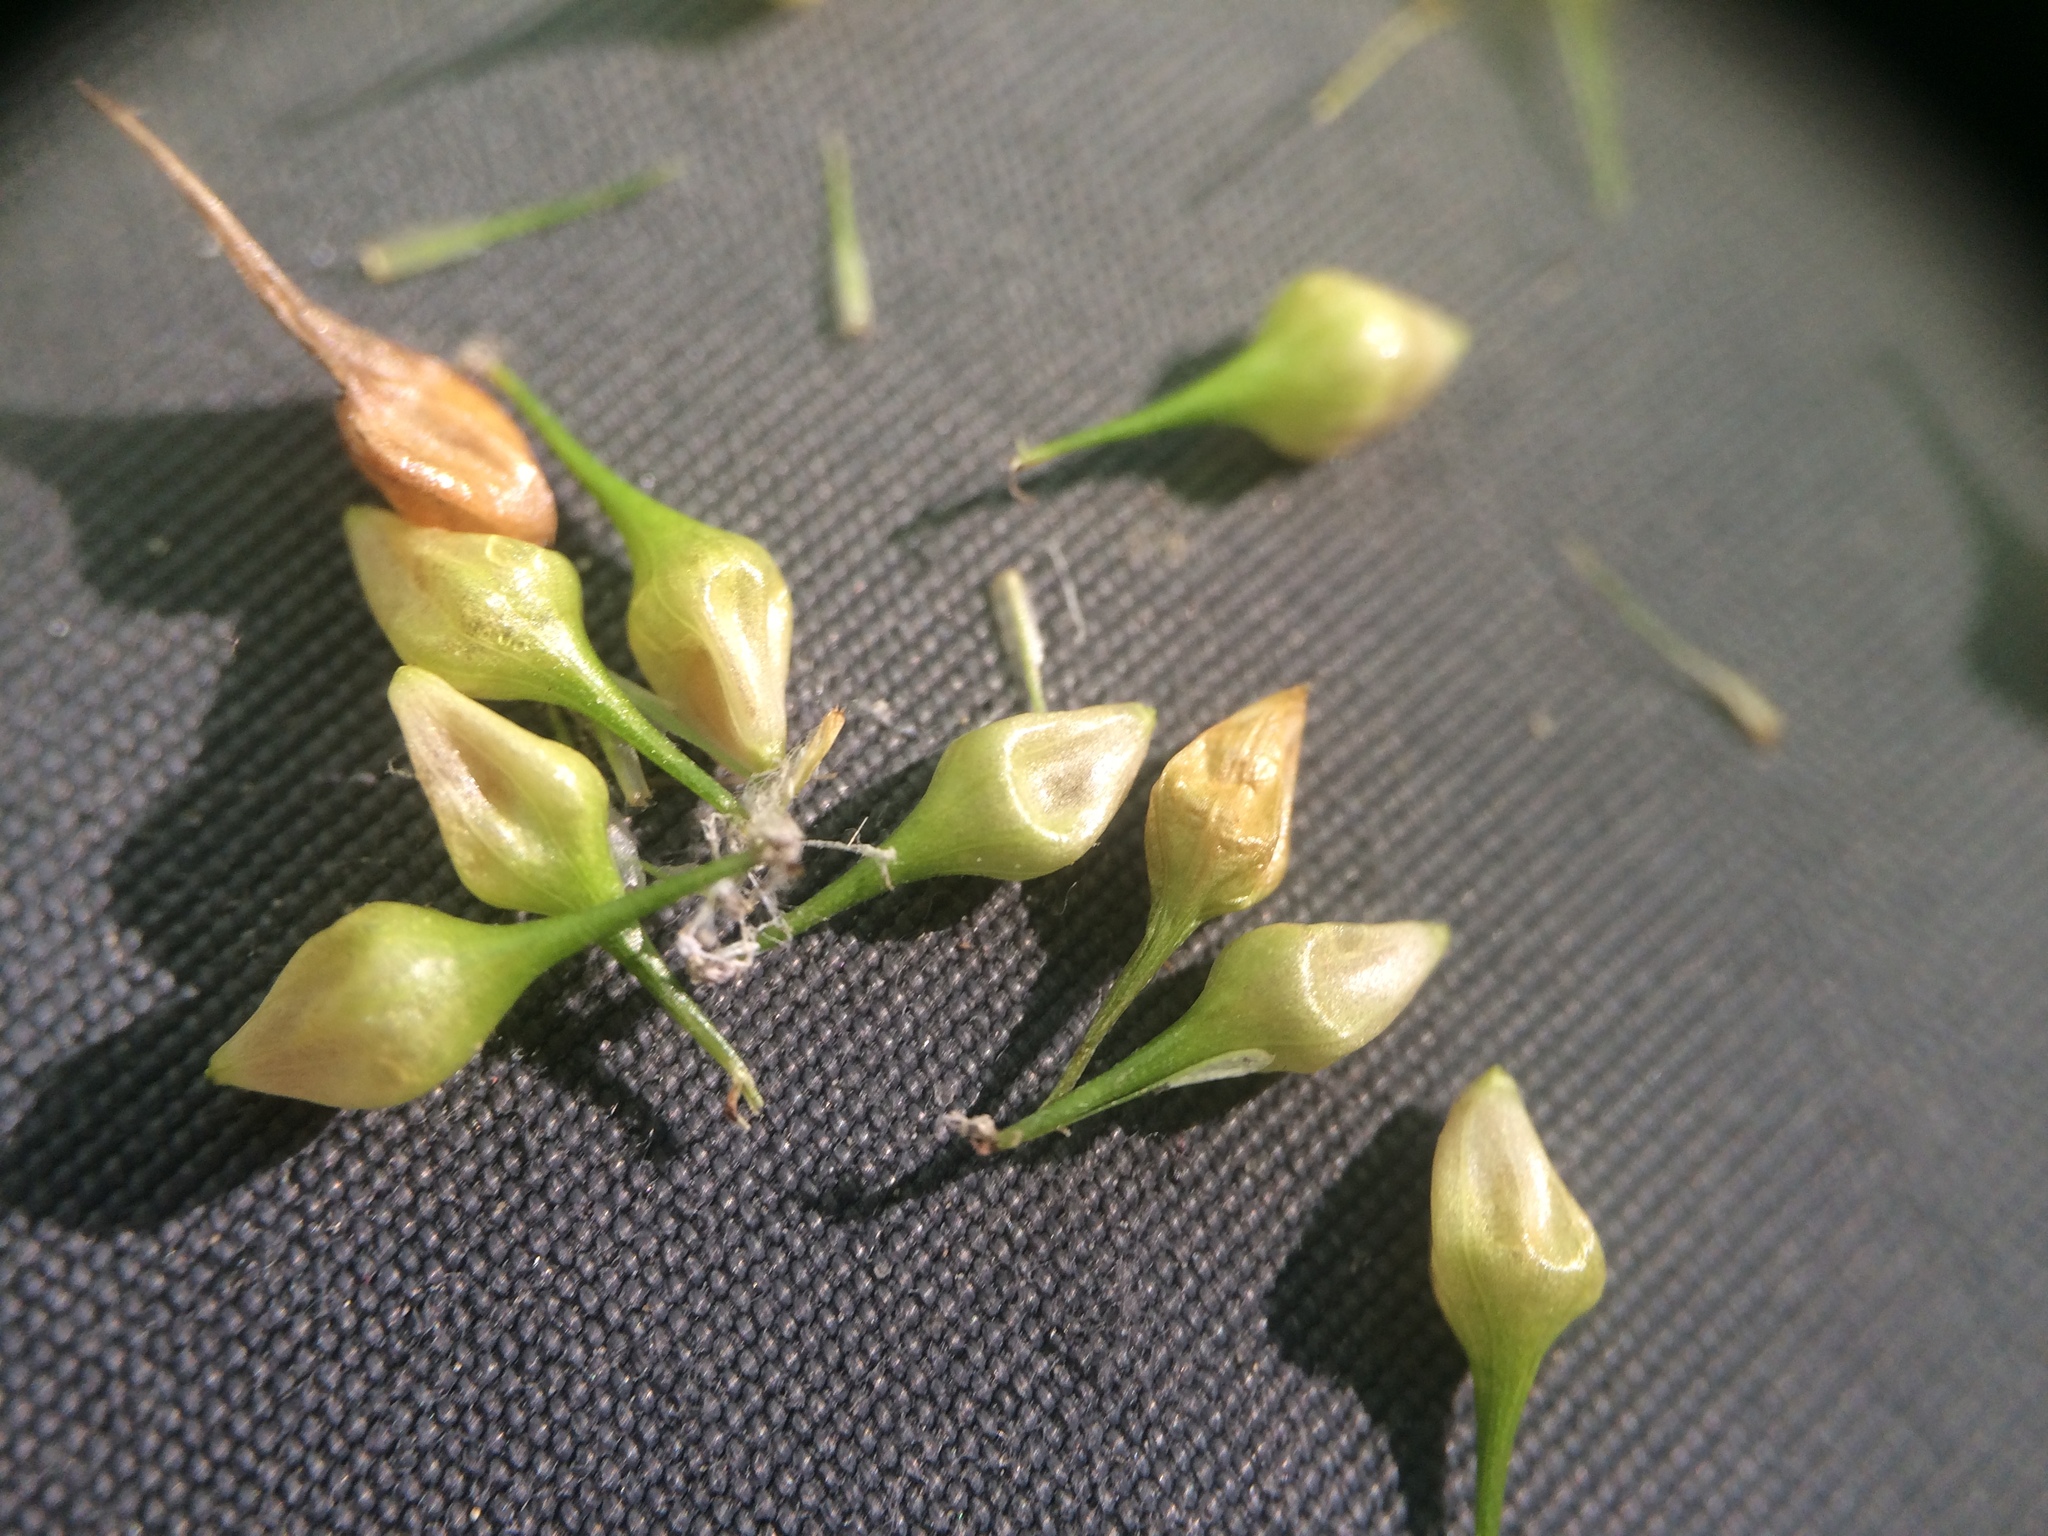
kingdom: Plantae
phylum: Tracheophyta
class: Liliopsida
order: Poales
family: Cyperaceae
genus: Carex
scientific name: Carex lurida
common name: Sallow sedge
